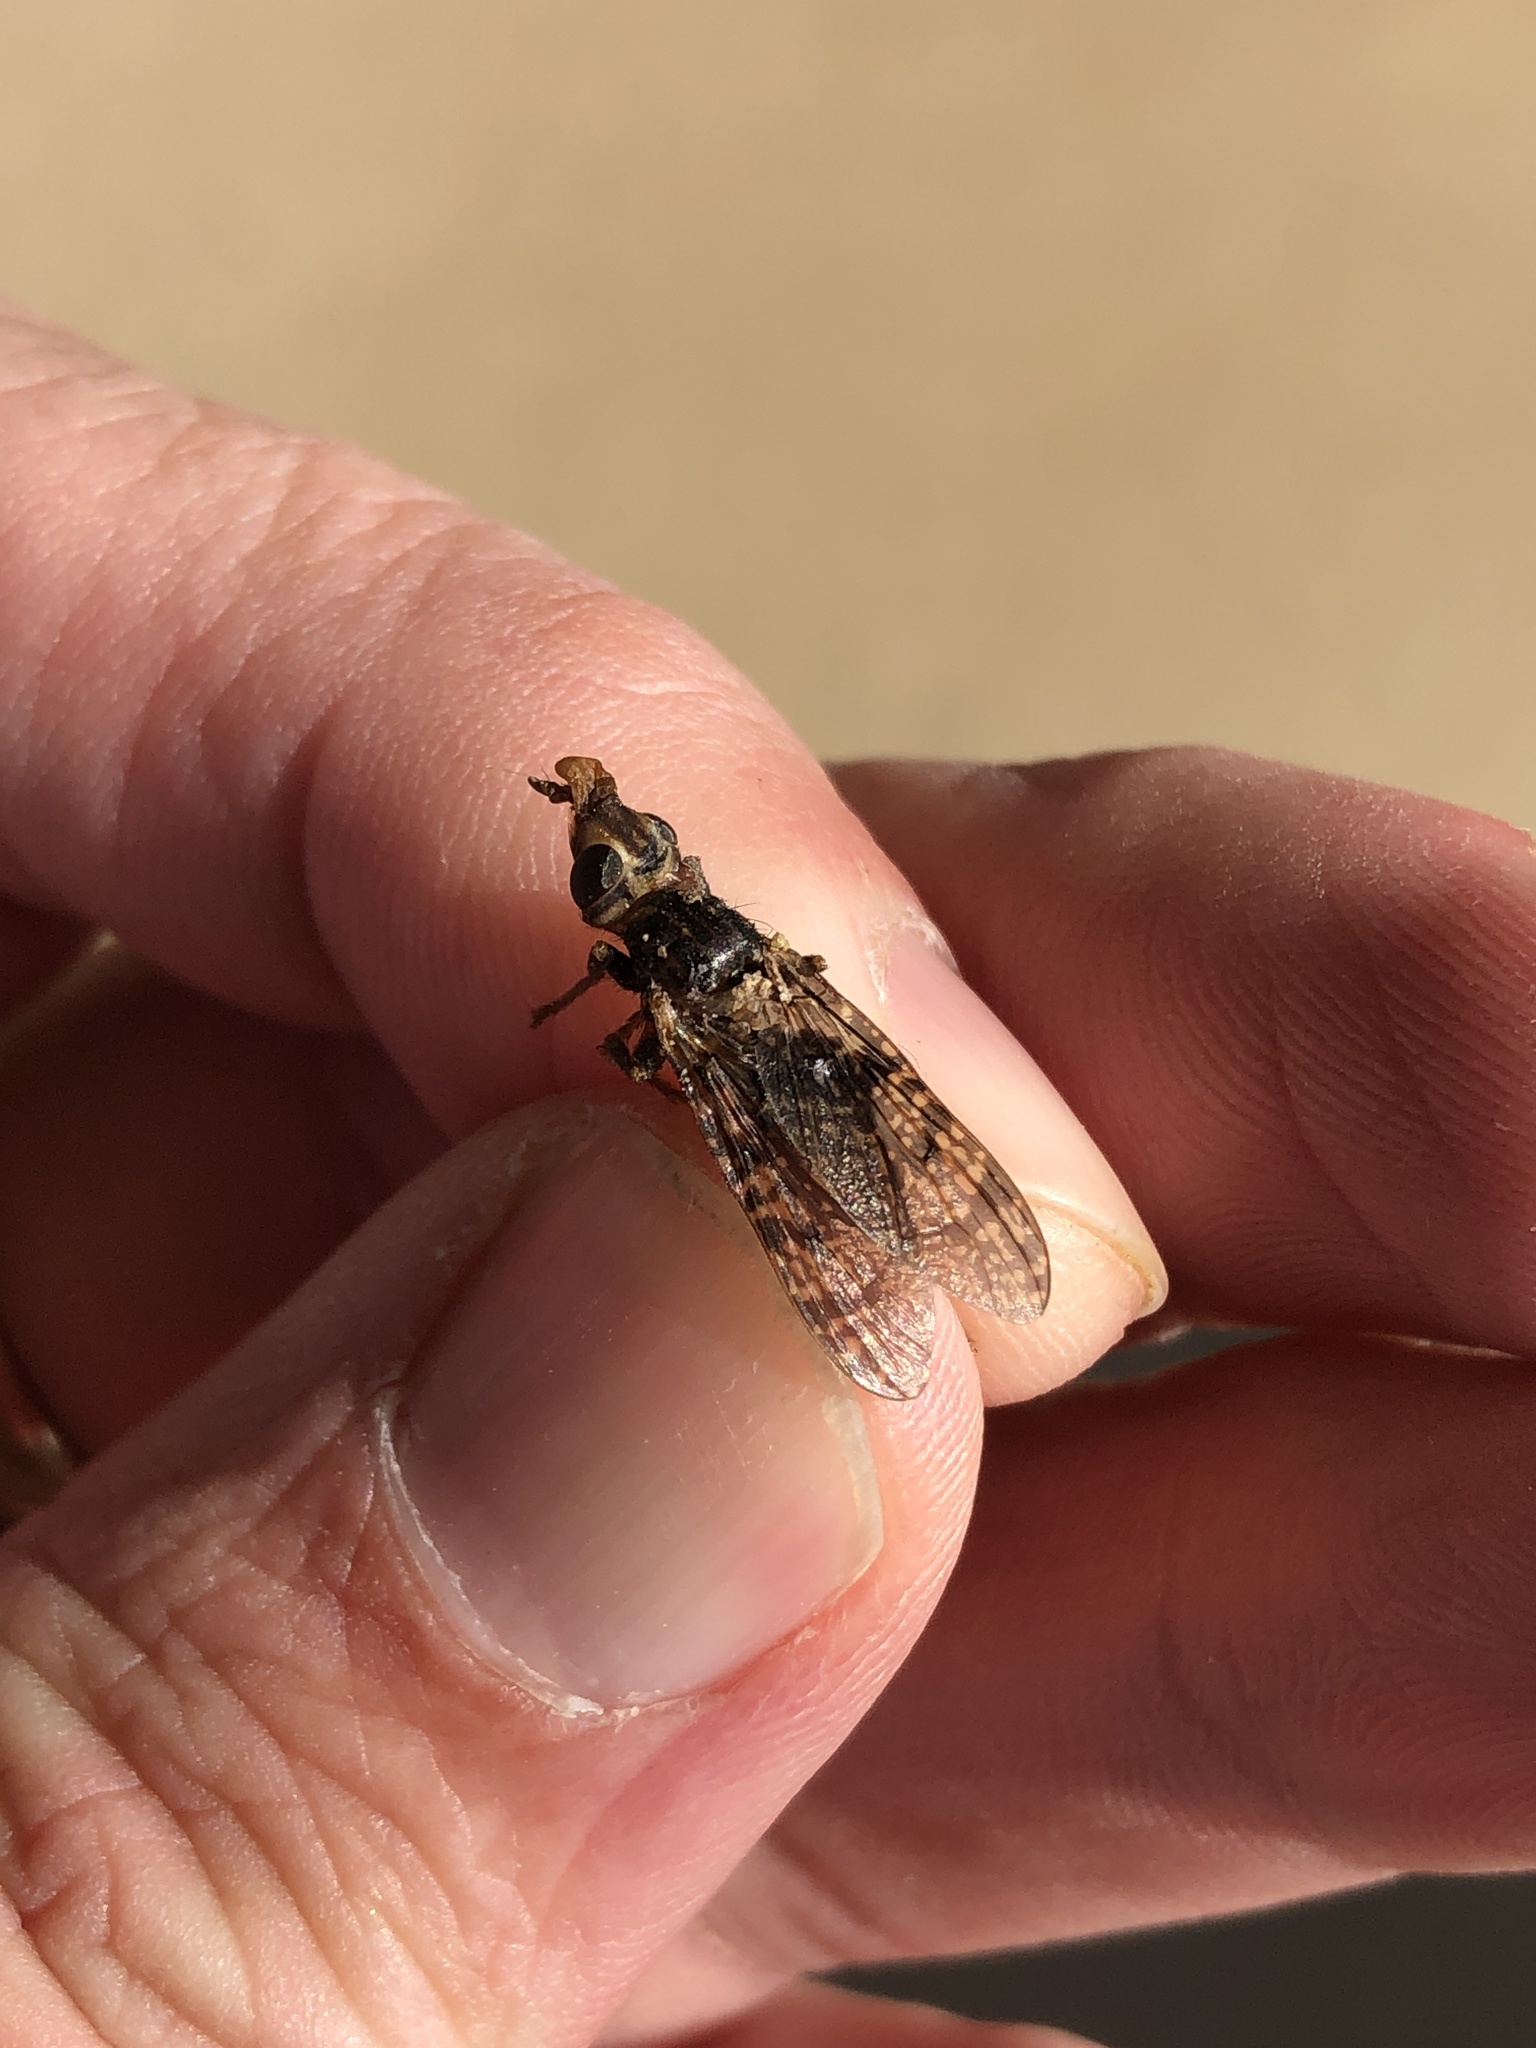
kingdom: Animalia
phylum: Arthropoda
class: Insecta
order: Diptera
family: Pyrgotidae
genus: Pyrgota
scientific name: Pyrgota valida
